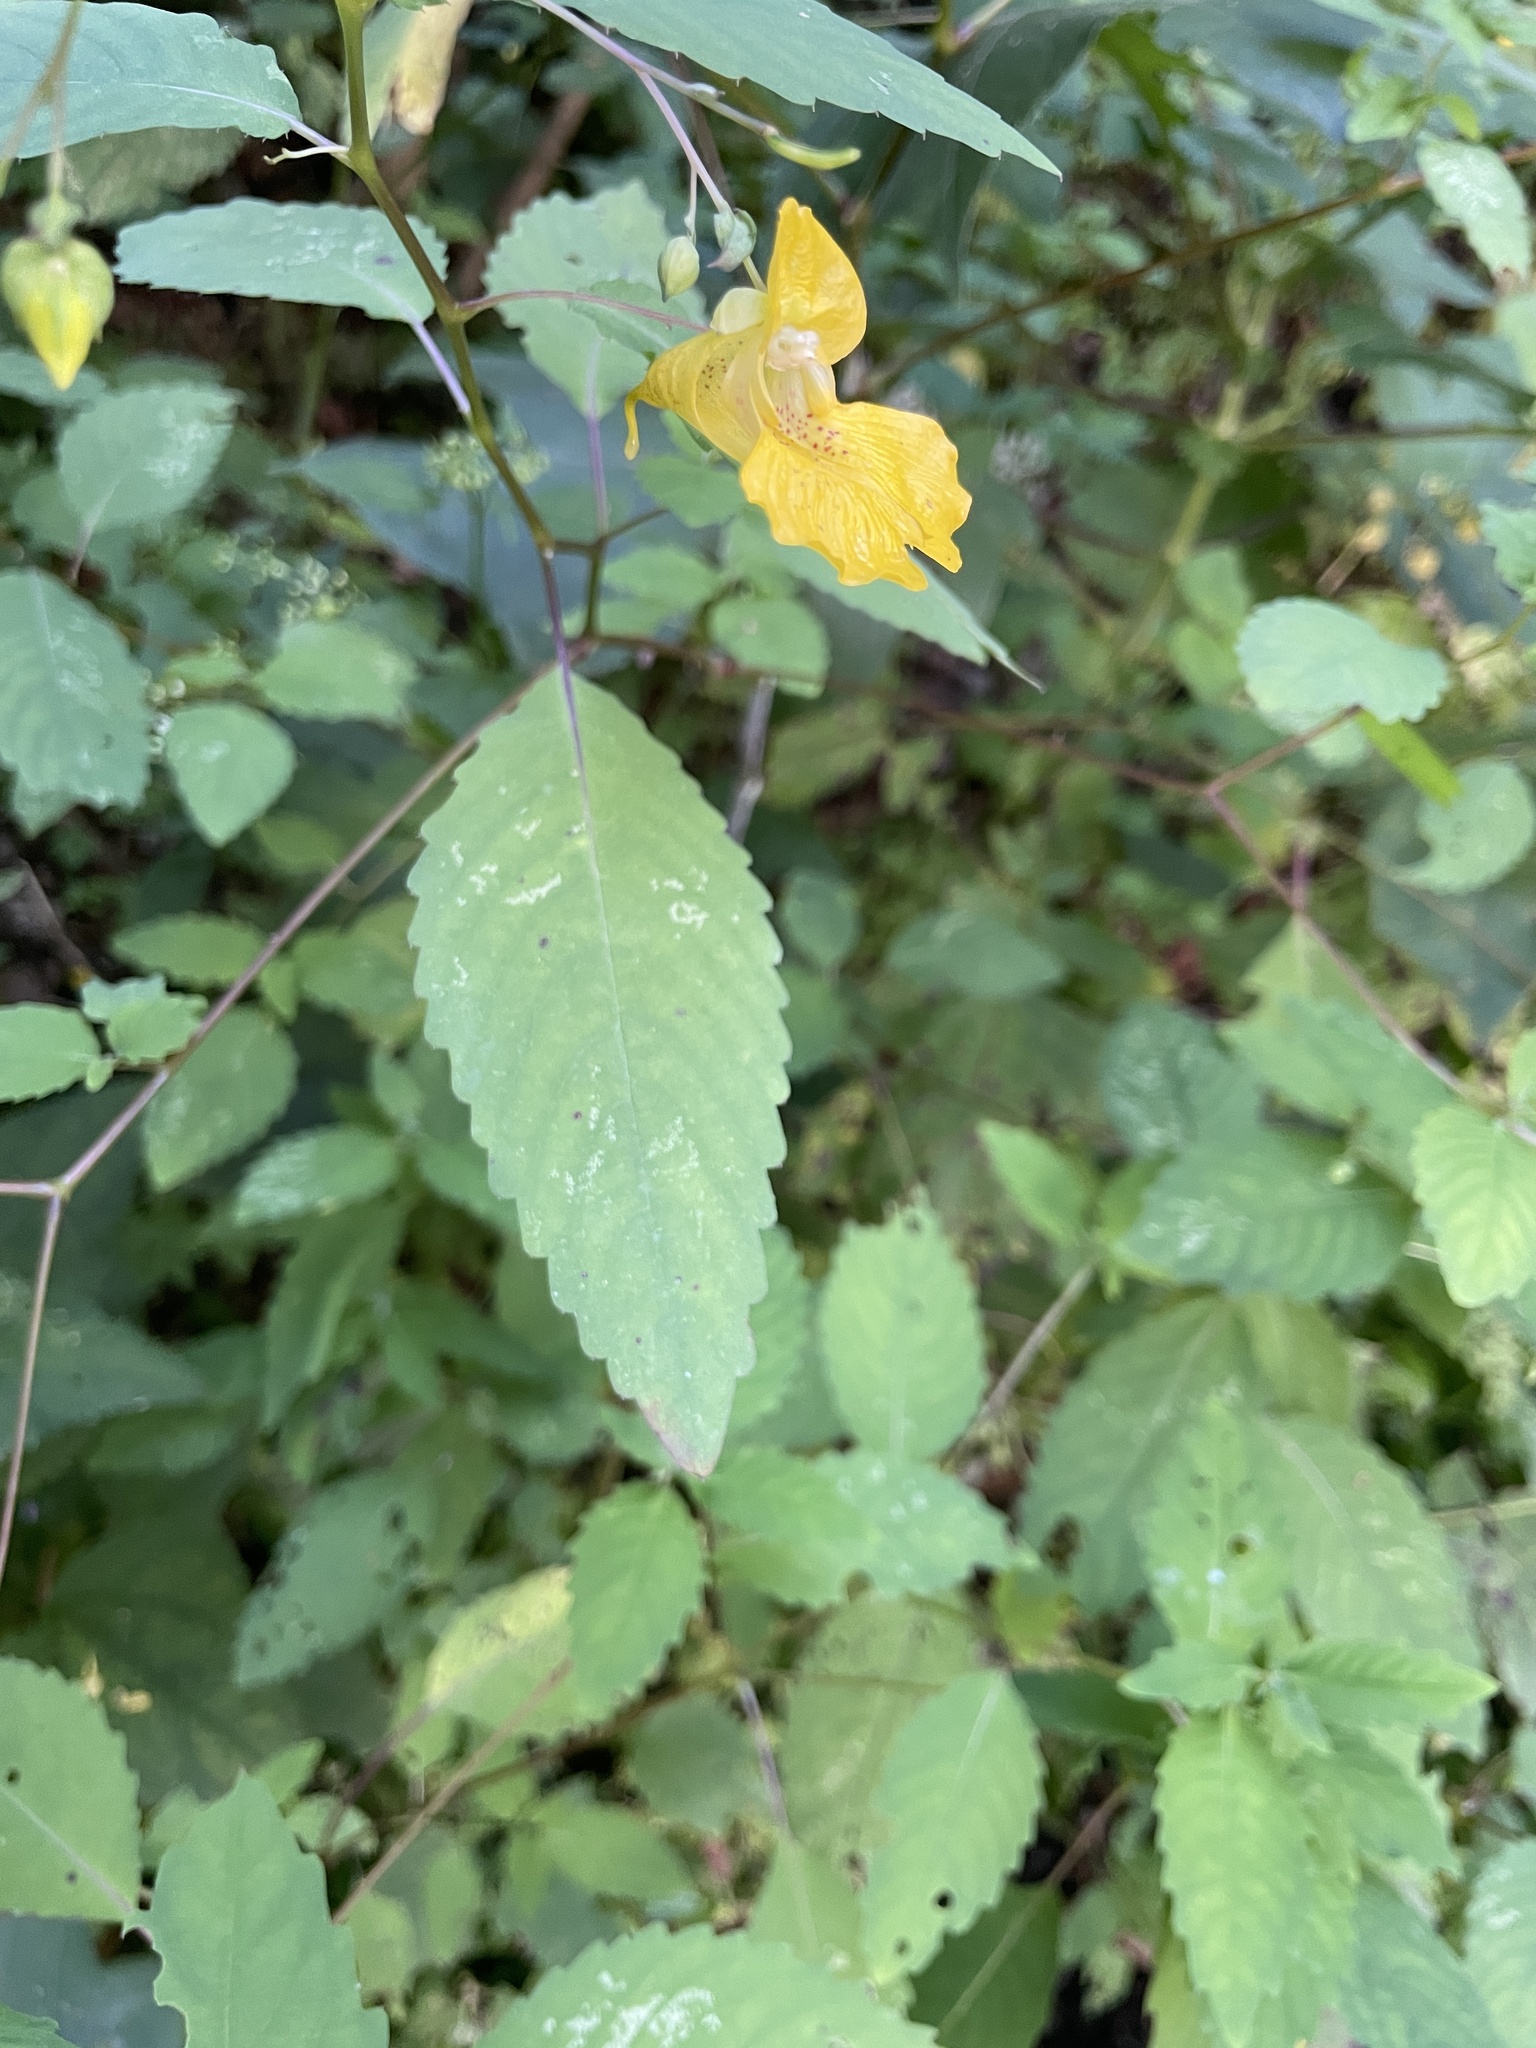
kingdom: Plantae
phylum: Tracheophyta
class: Magnoliopsida
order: Ericales
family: Balsaminaceae
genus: Impatiens
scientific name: Impatiens pallida
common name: Pale snapweed
